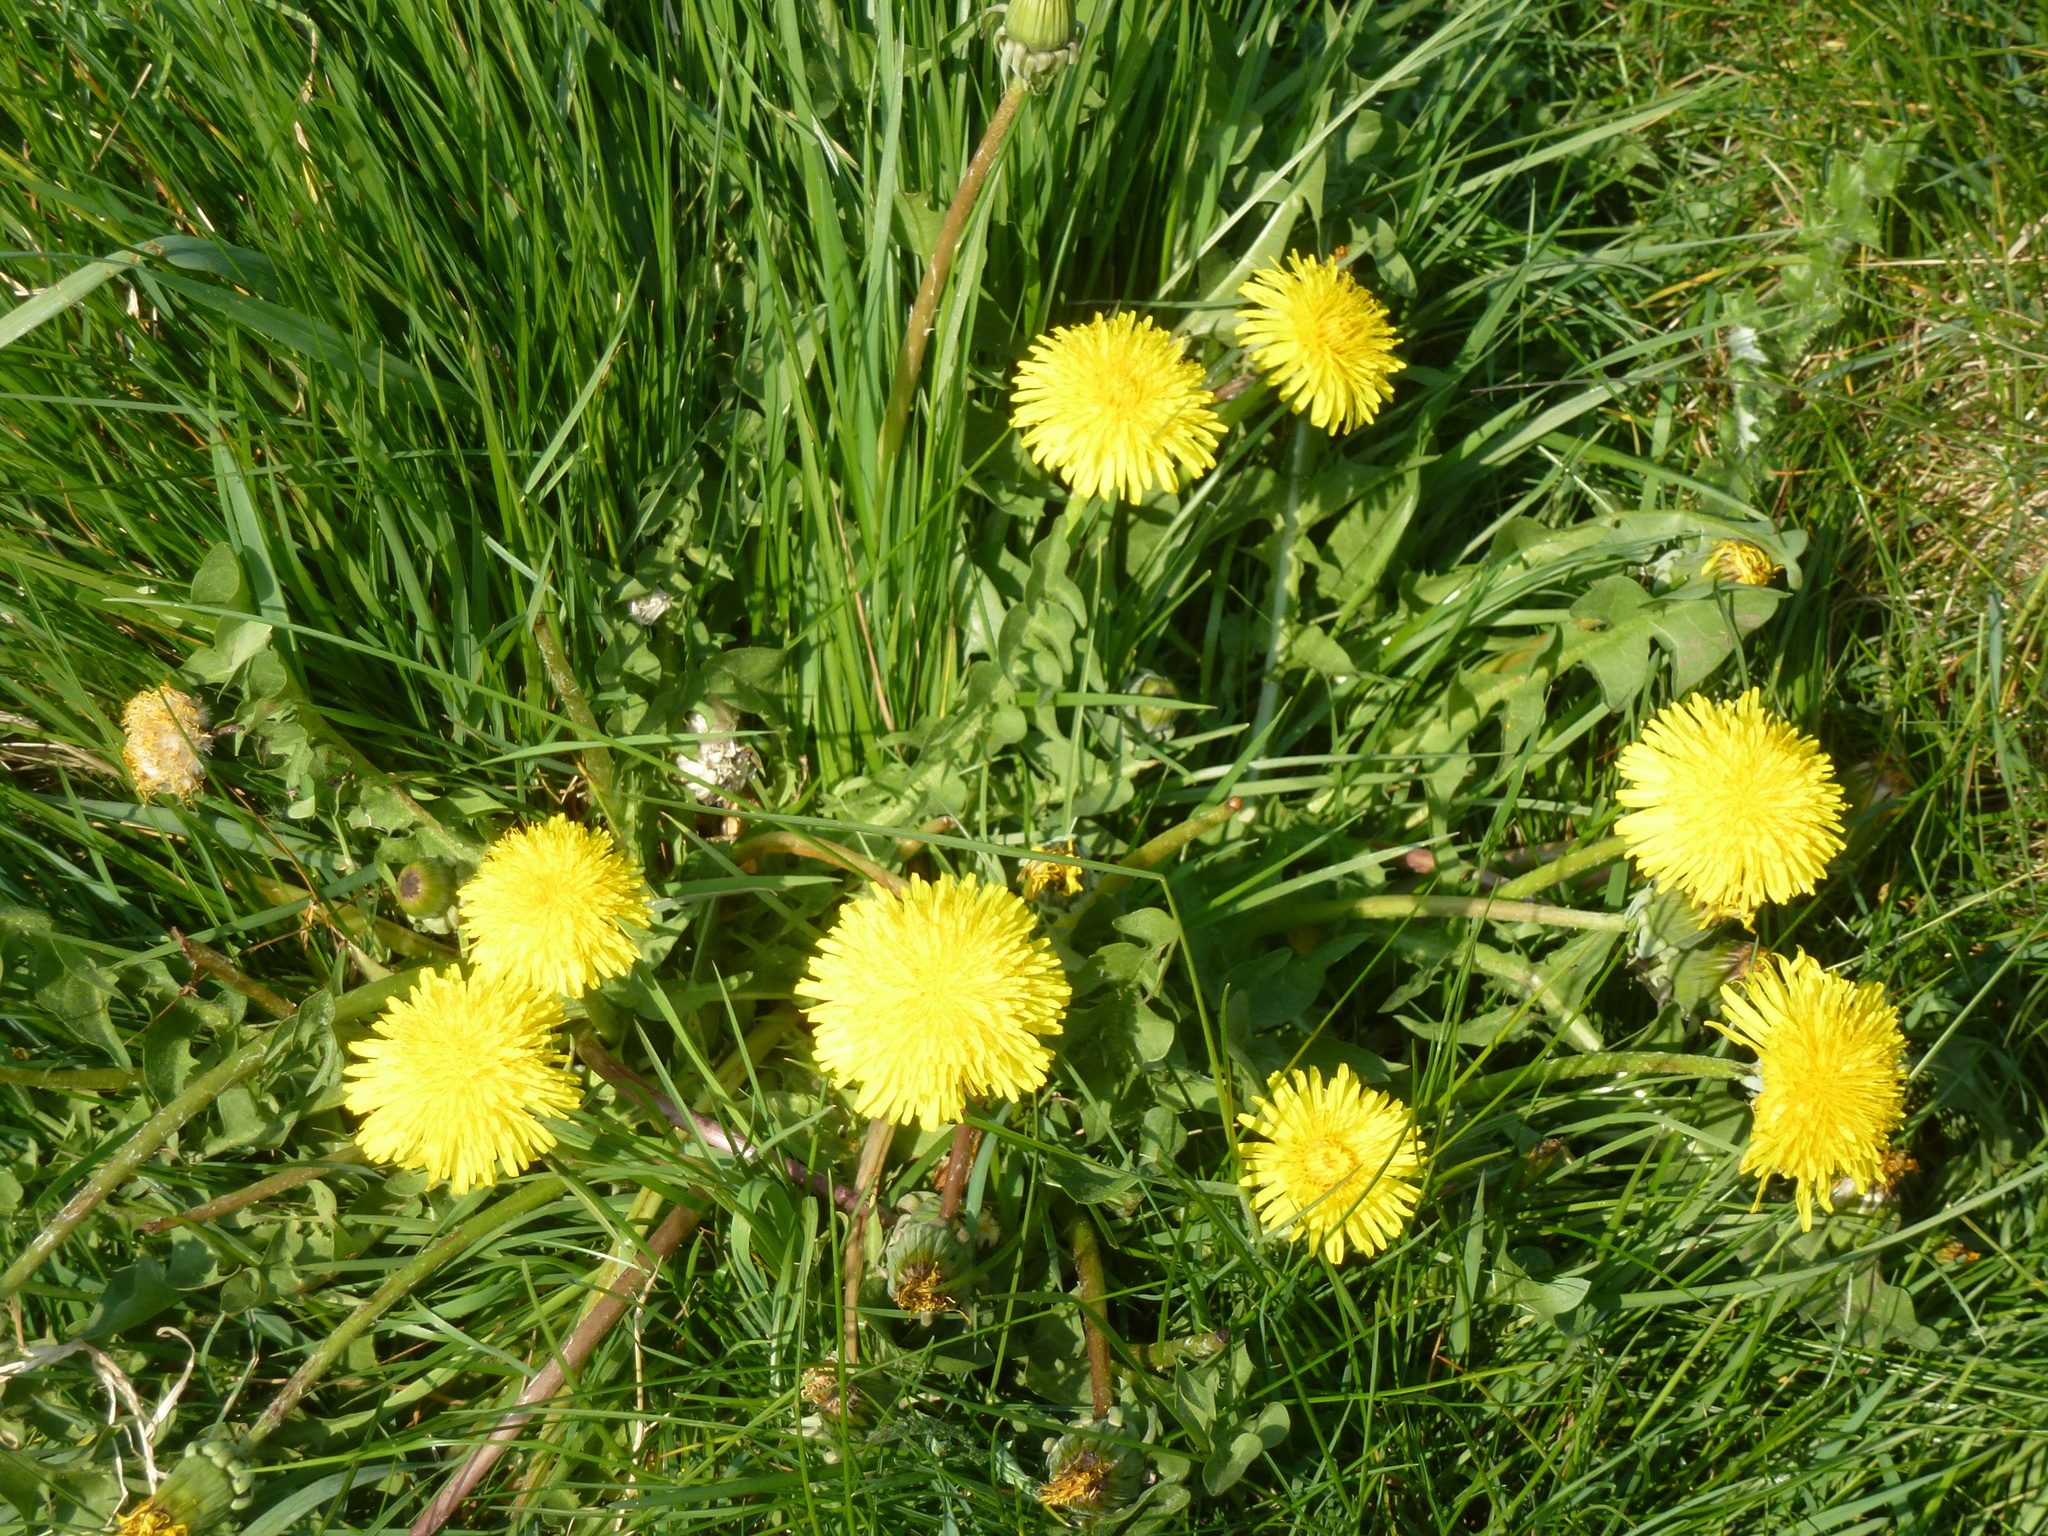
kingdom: Plantae
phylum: Tracheophyta
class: Magnoliopsida
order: Asterales
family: Asteraceae
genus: Taraxacum
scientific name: Taraxacum officinale
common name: Common dandelion
